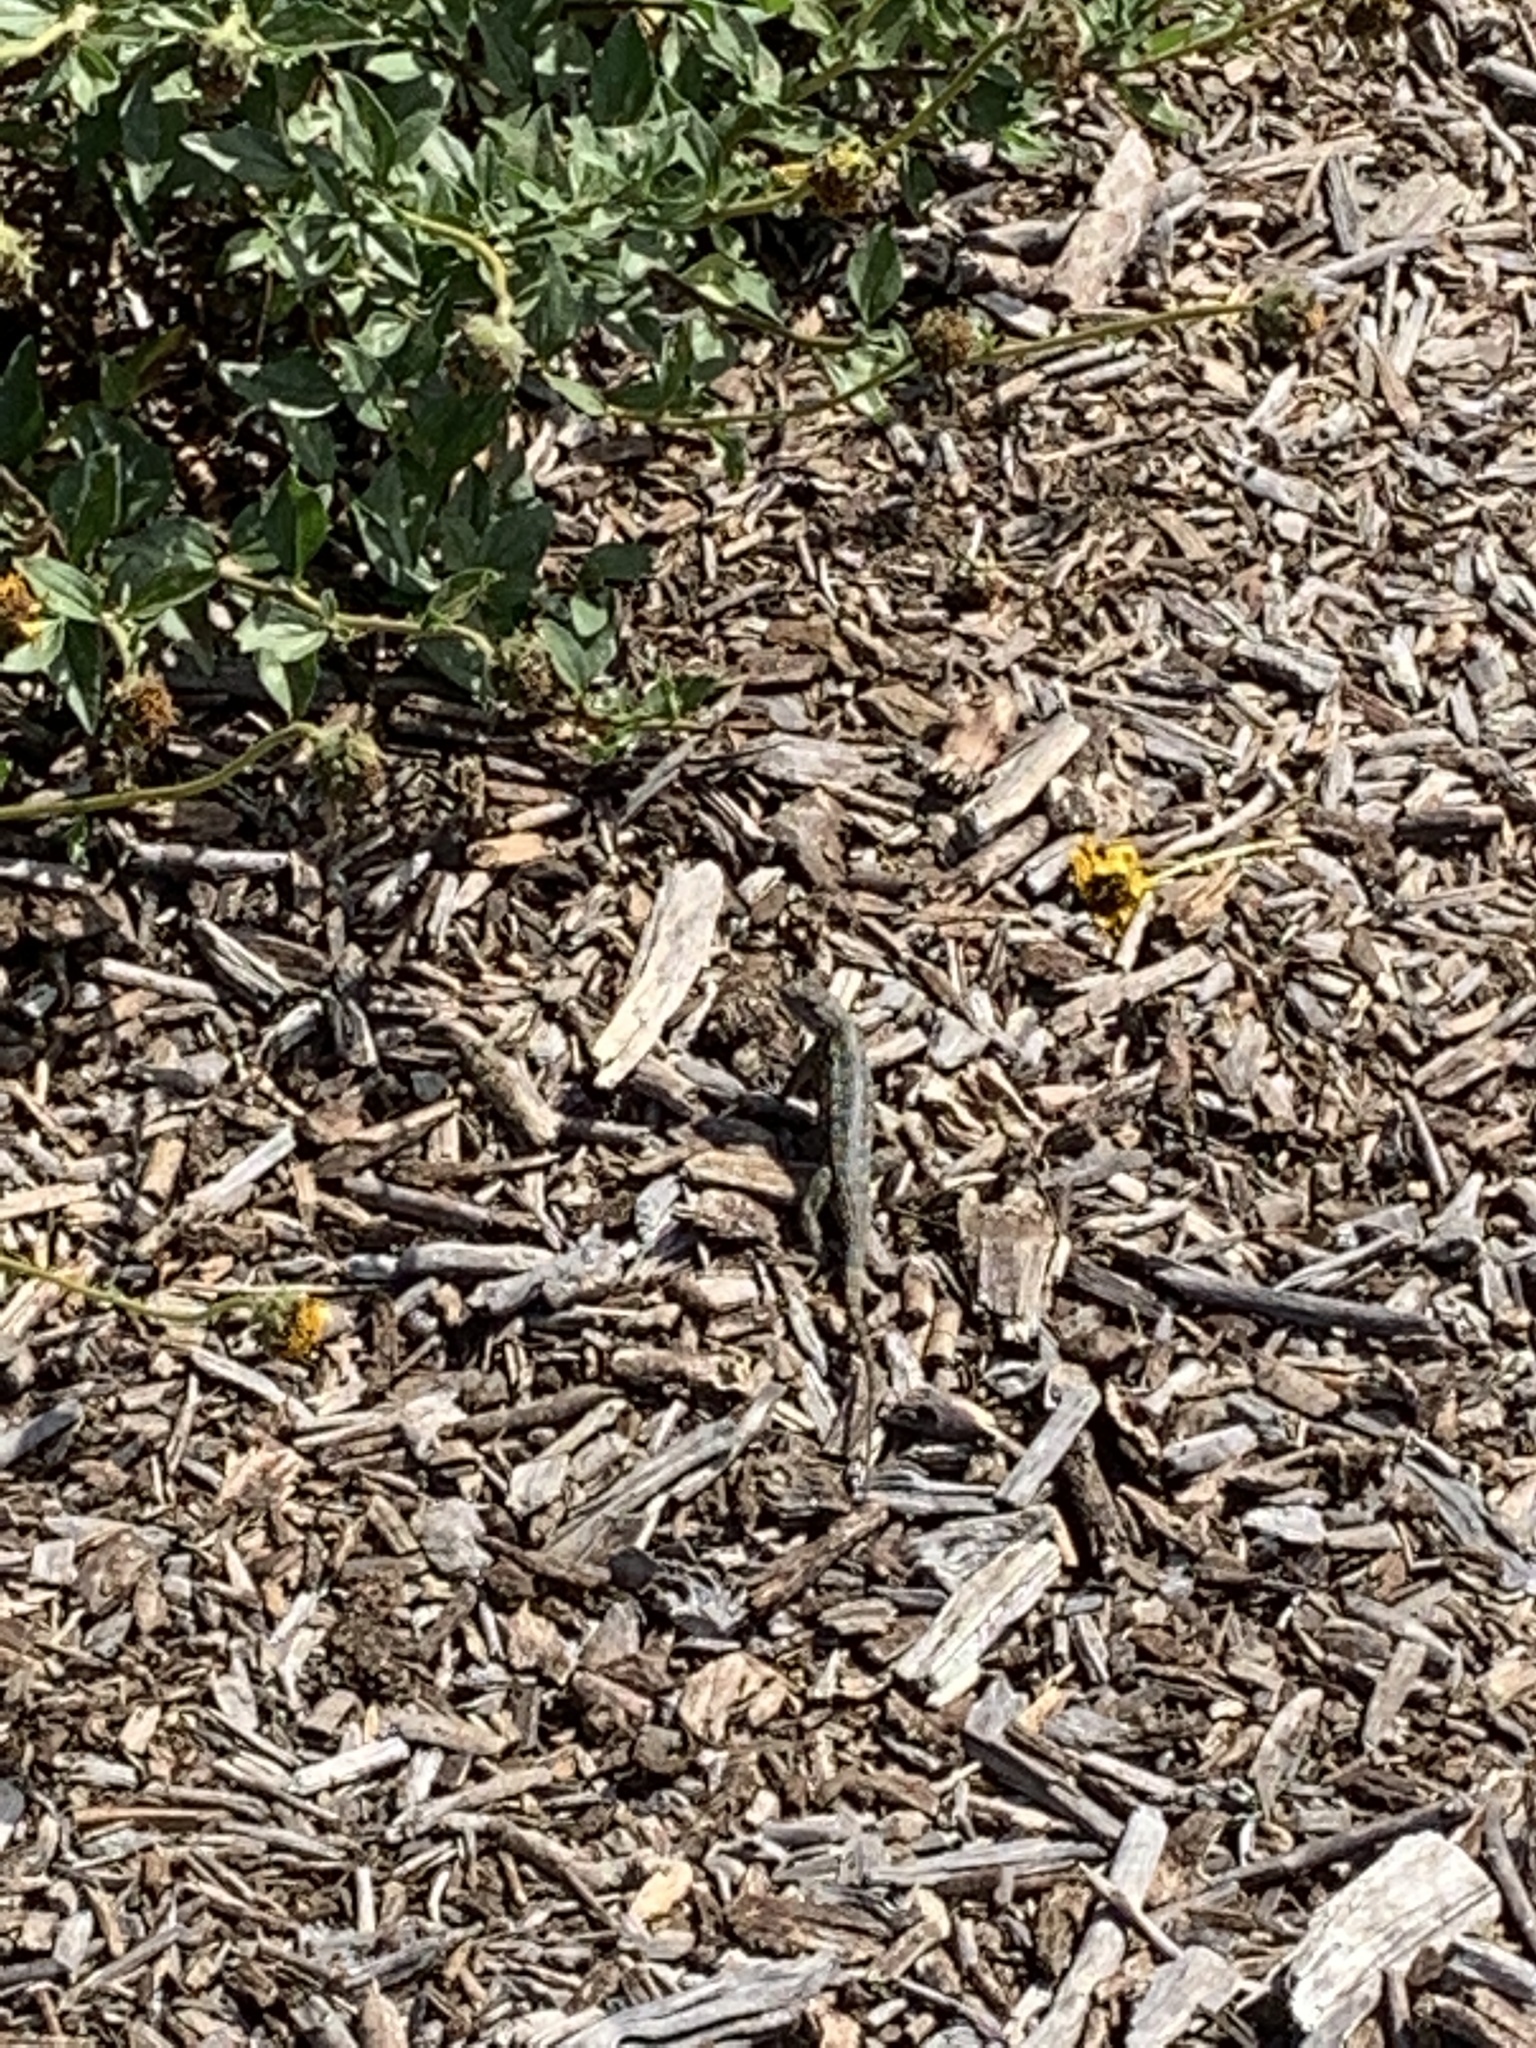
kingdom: Animalia
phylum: Chordata
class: Squamata
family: Phrynosomatidae
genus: Sceloporus
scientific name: Sceloporus occidentalis
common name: Western fence lizard
